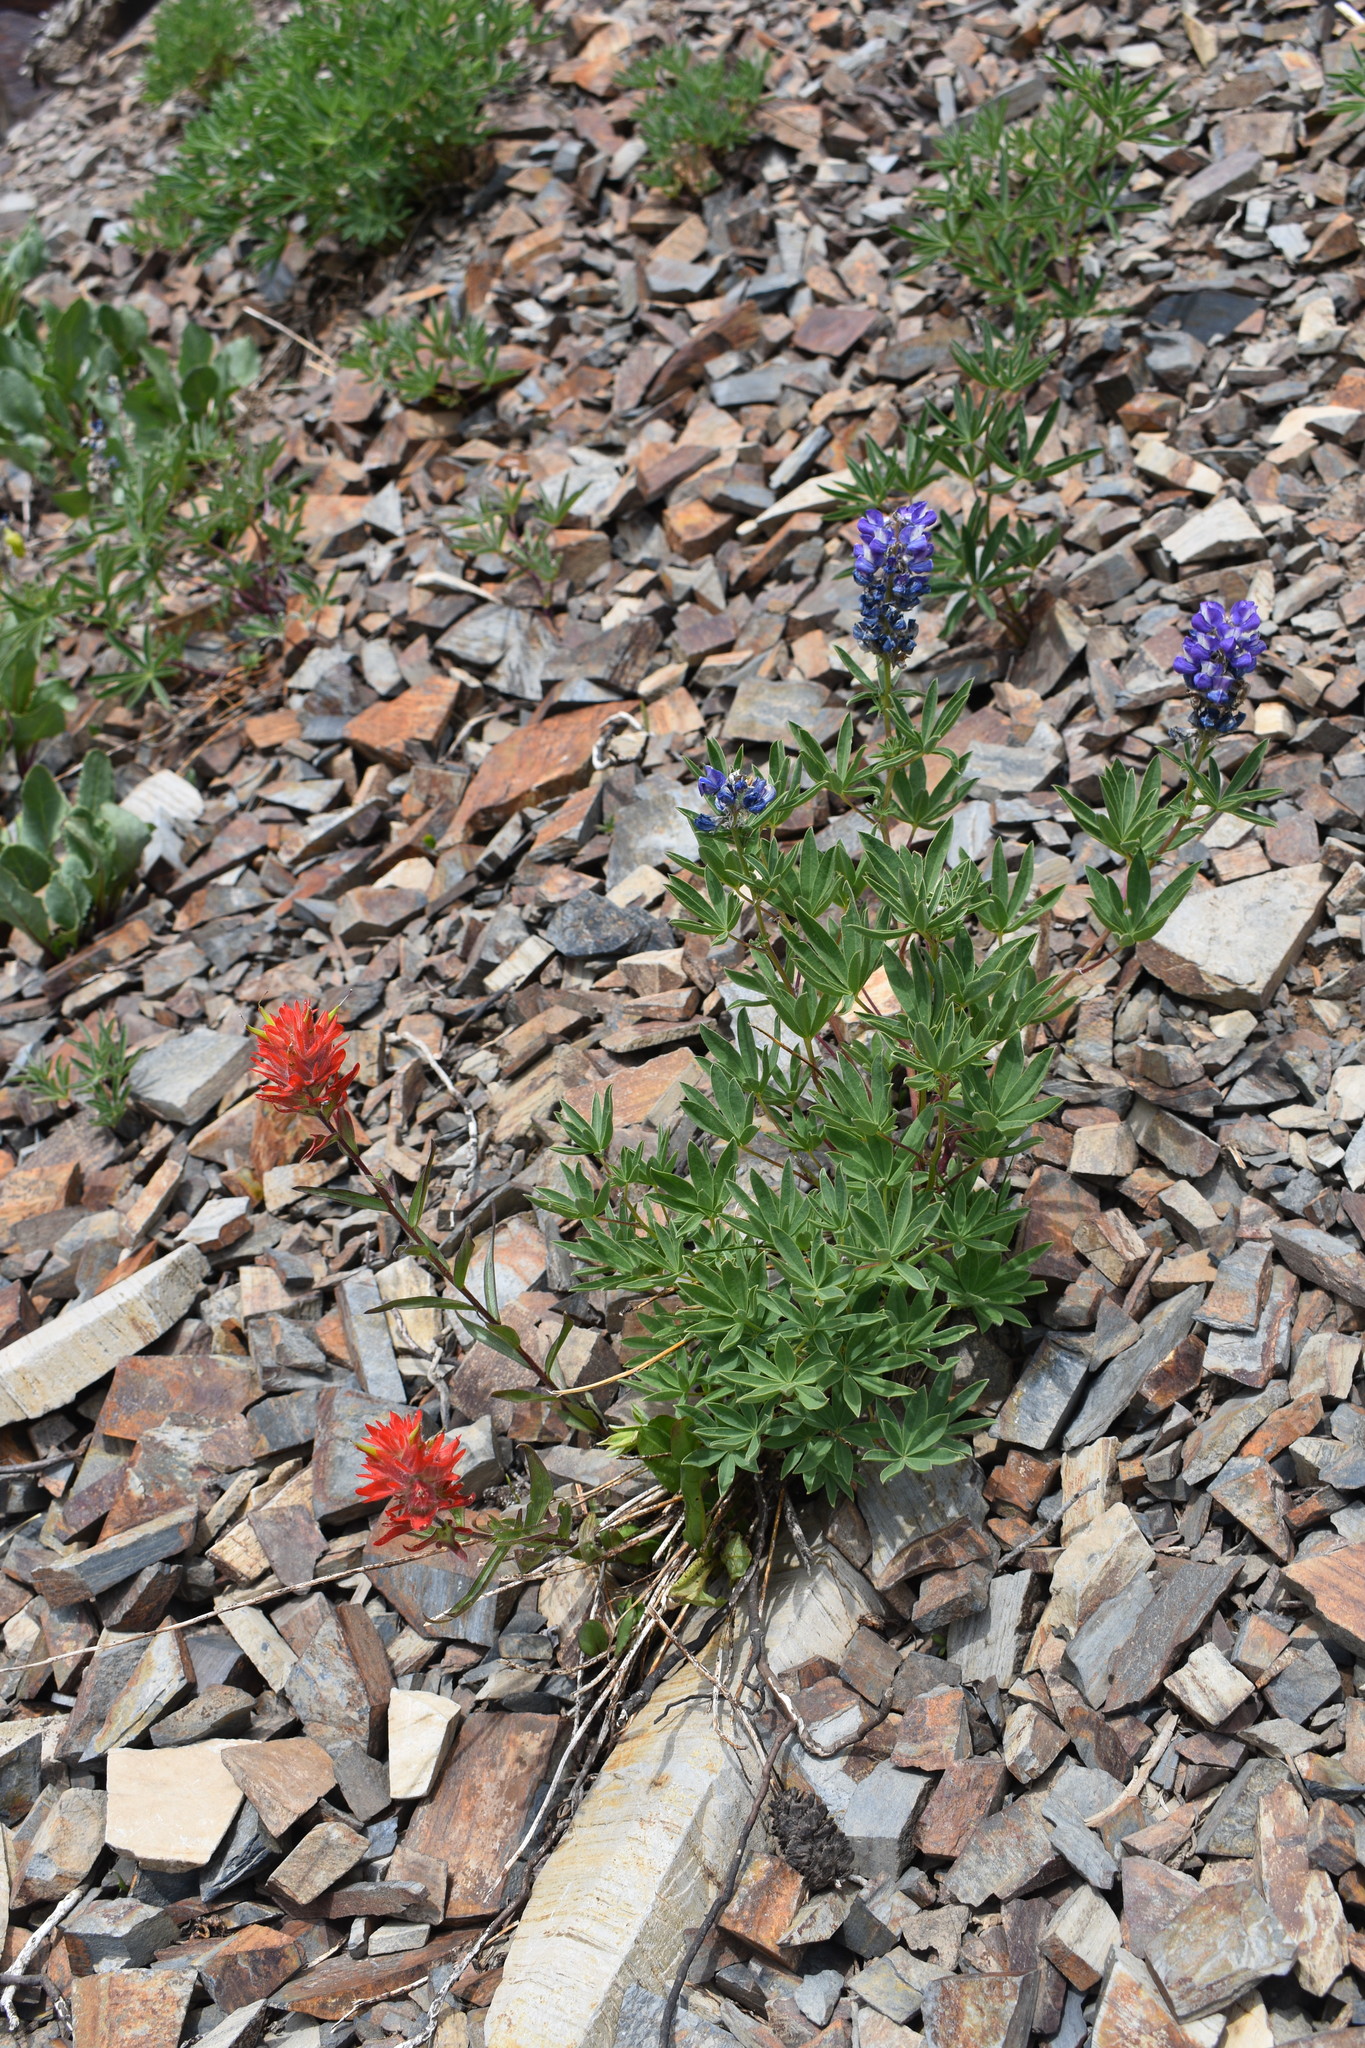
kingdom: Plantae
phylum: Tracheophyta
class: Magnoliopsida
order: Lamiales
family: Orobanchaceae
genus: Castilleja
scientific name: Castilleja miniata
